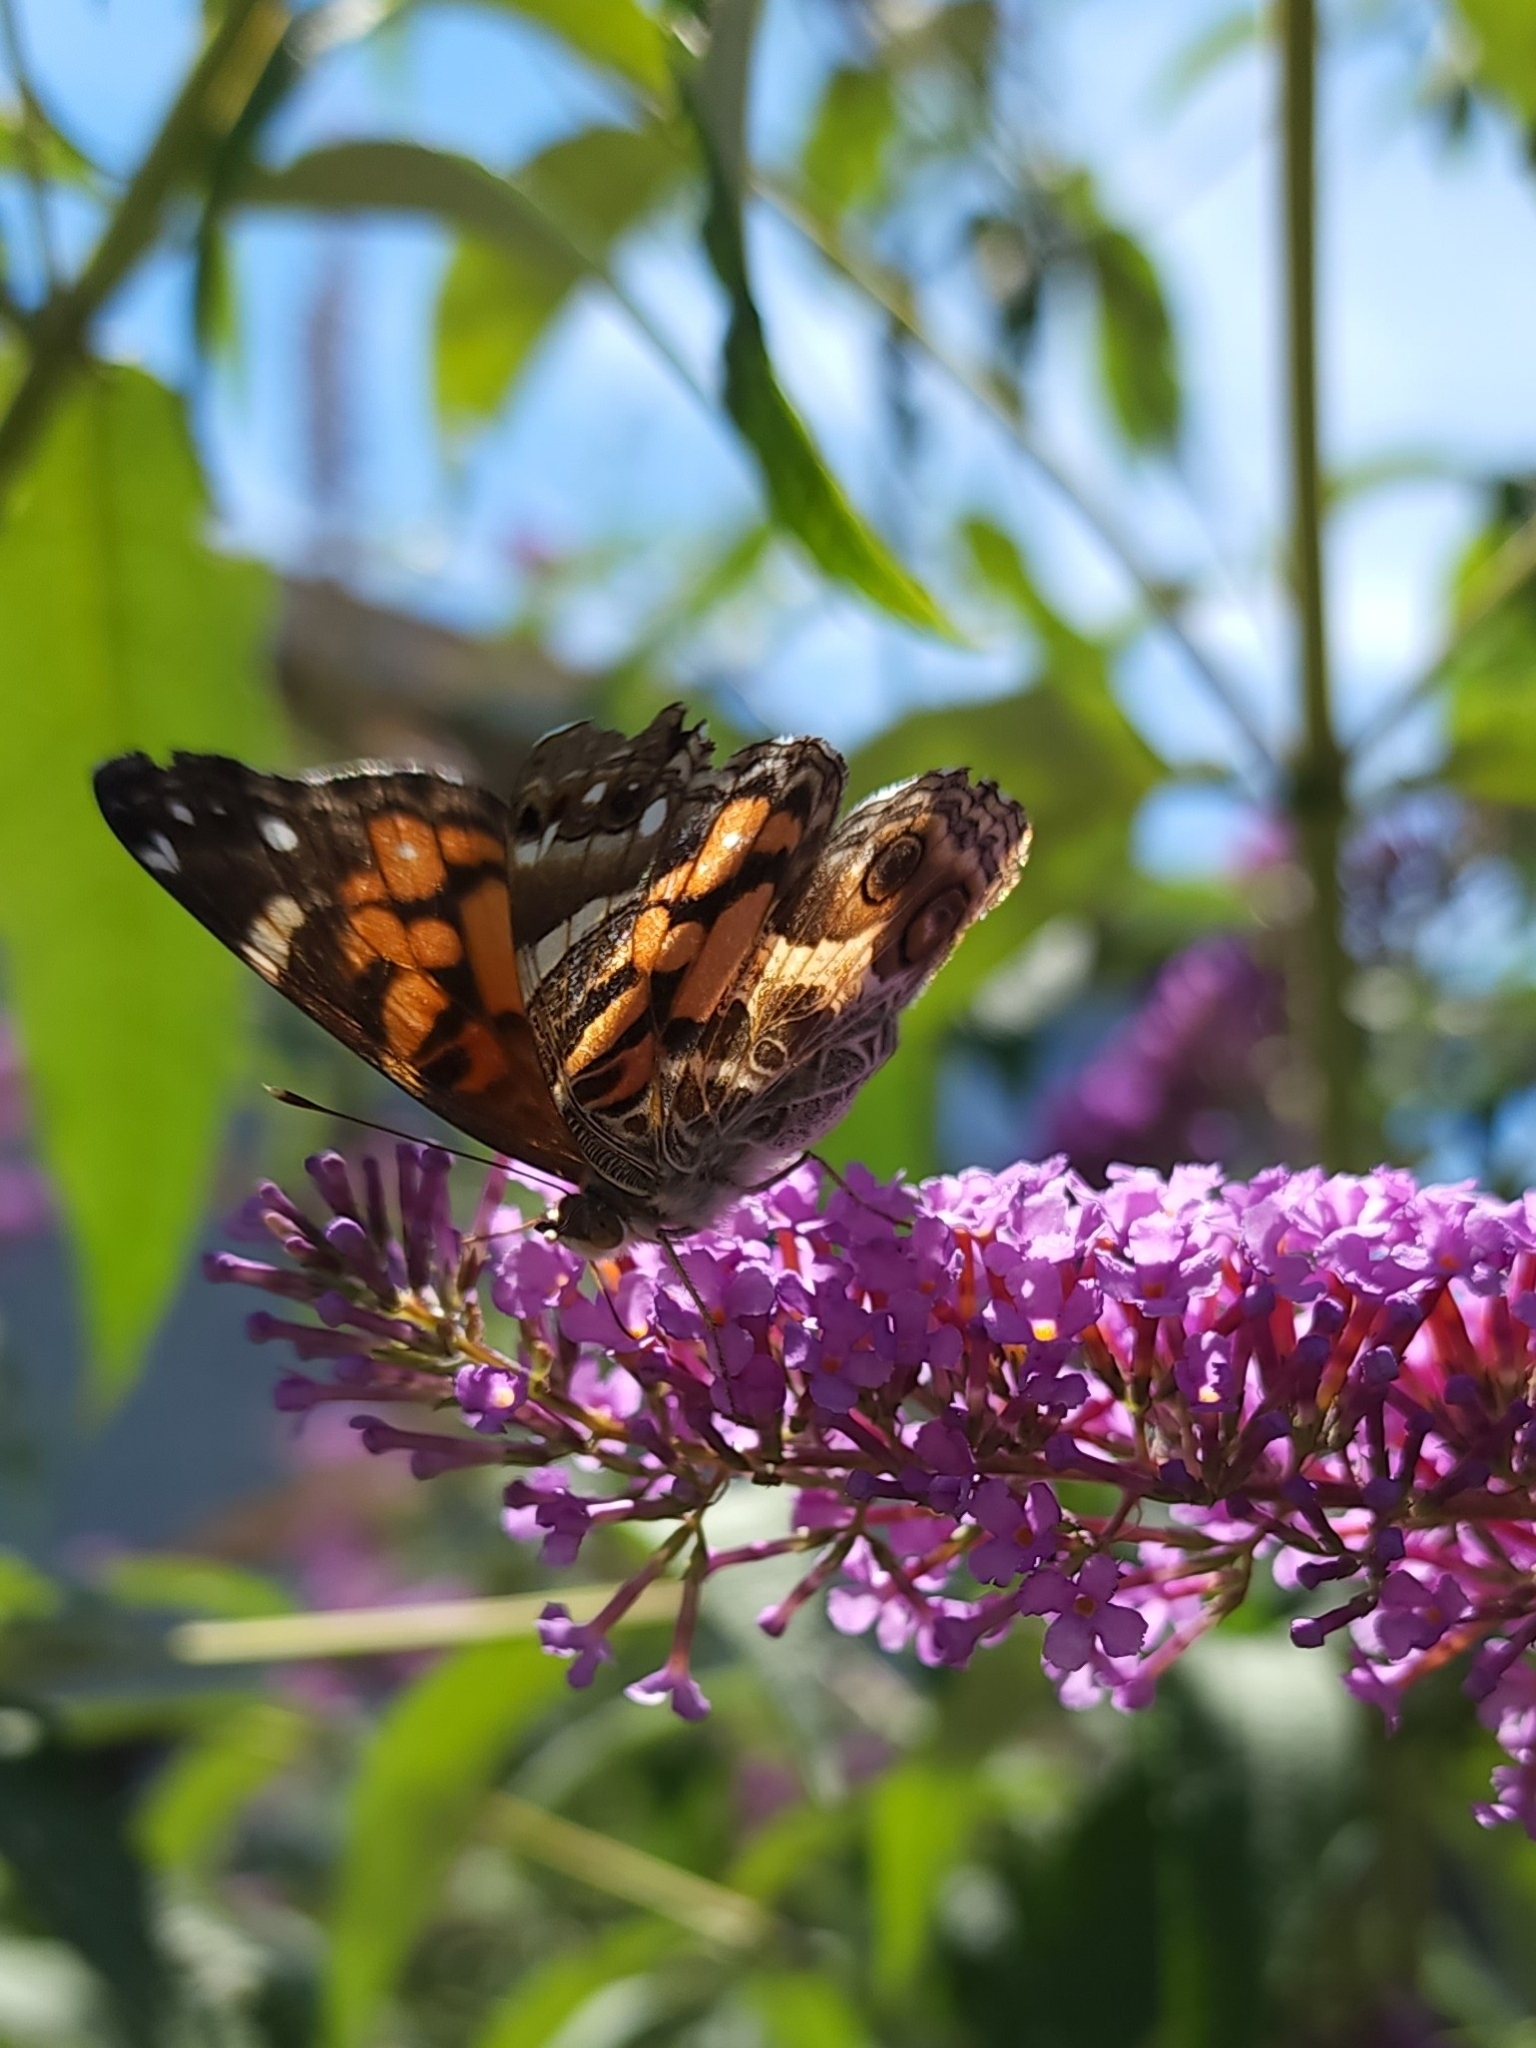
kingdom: Animalia
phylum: Arthropoda
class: Insecta
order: Lepidoptera
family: Nymphalidae
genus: Vanessa
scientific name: Vanessa virginiensis
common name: American lady
